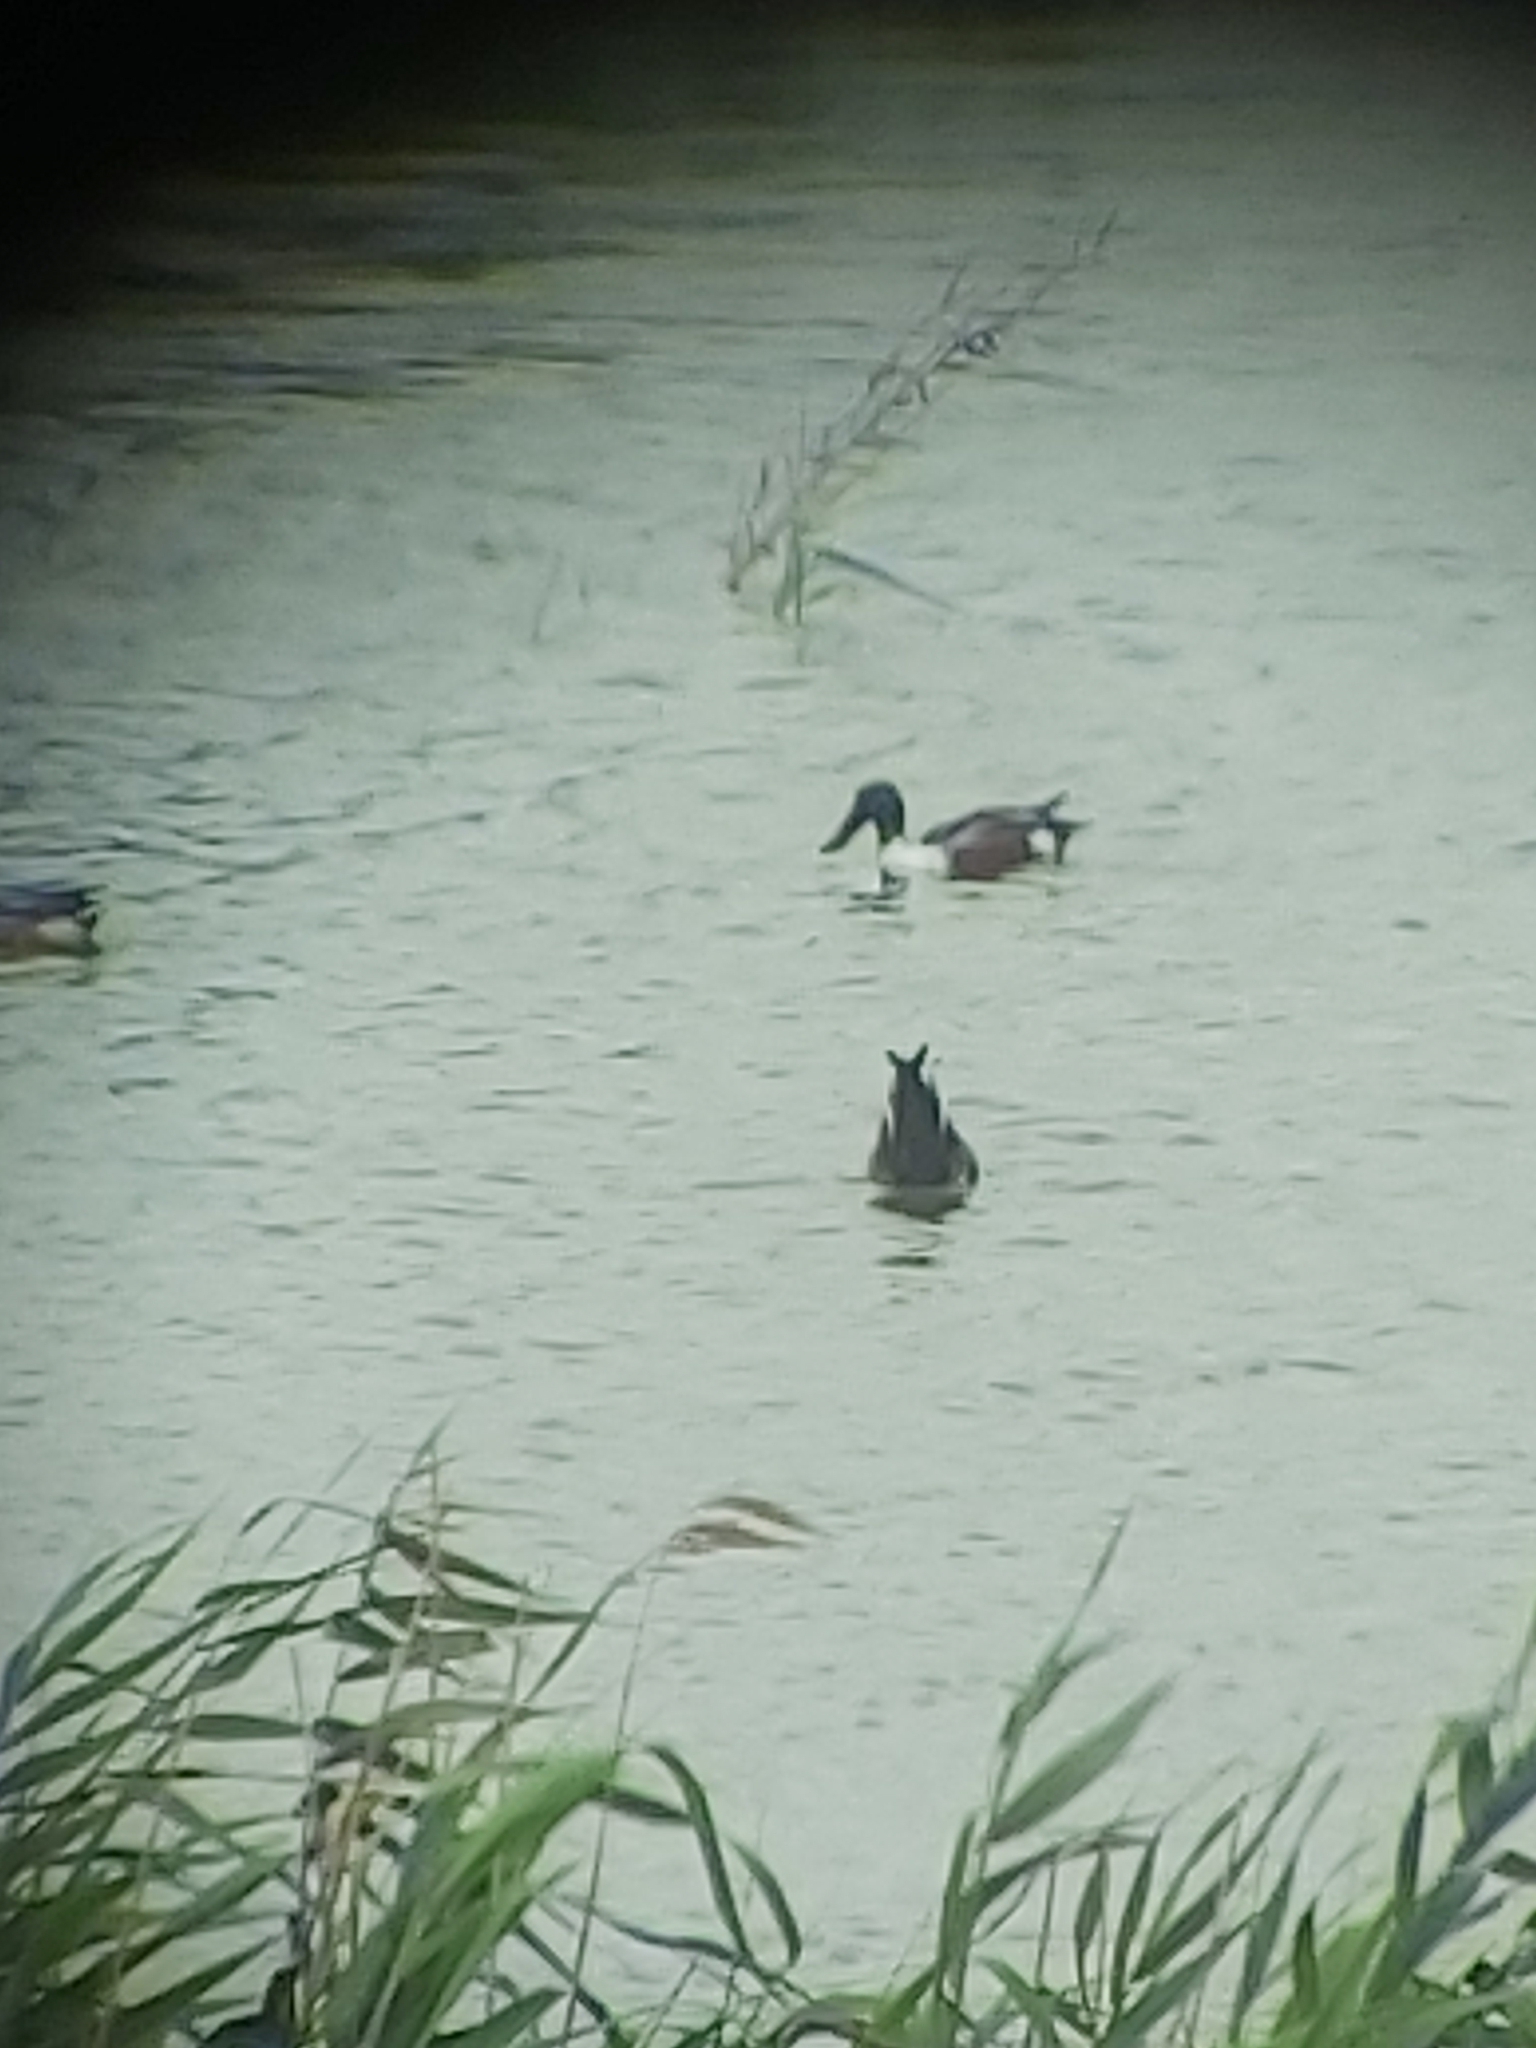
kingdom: Animalia
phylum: Chordata
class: Aves
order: Anseriformes
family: Anatidae
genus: Spatula
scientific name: Spatula clypeata
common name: Northern shoveler
